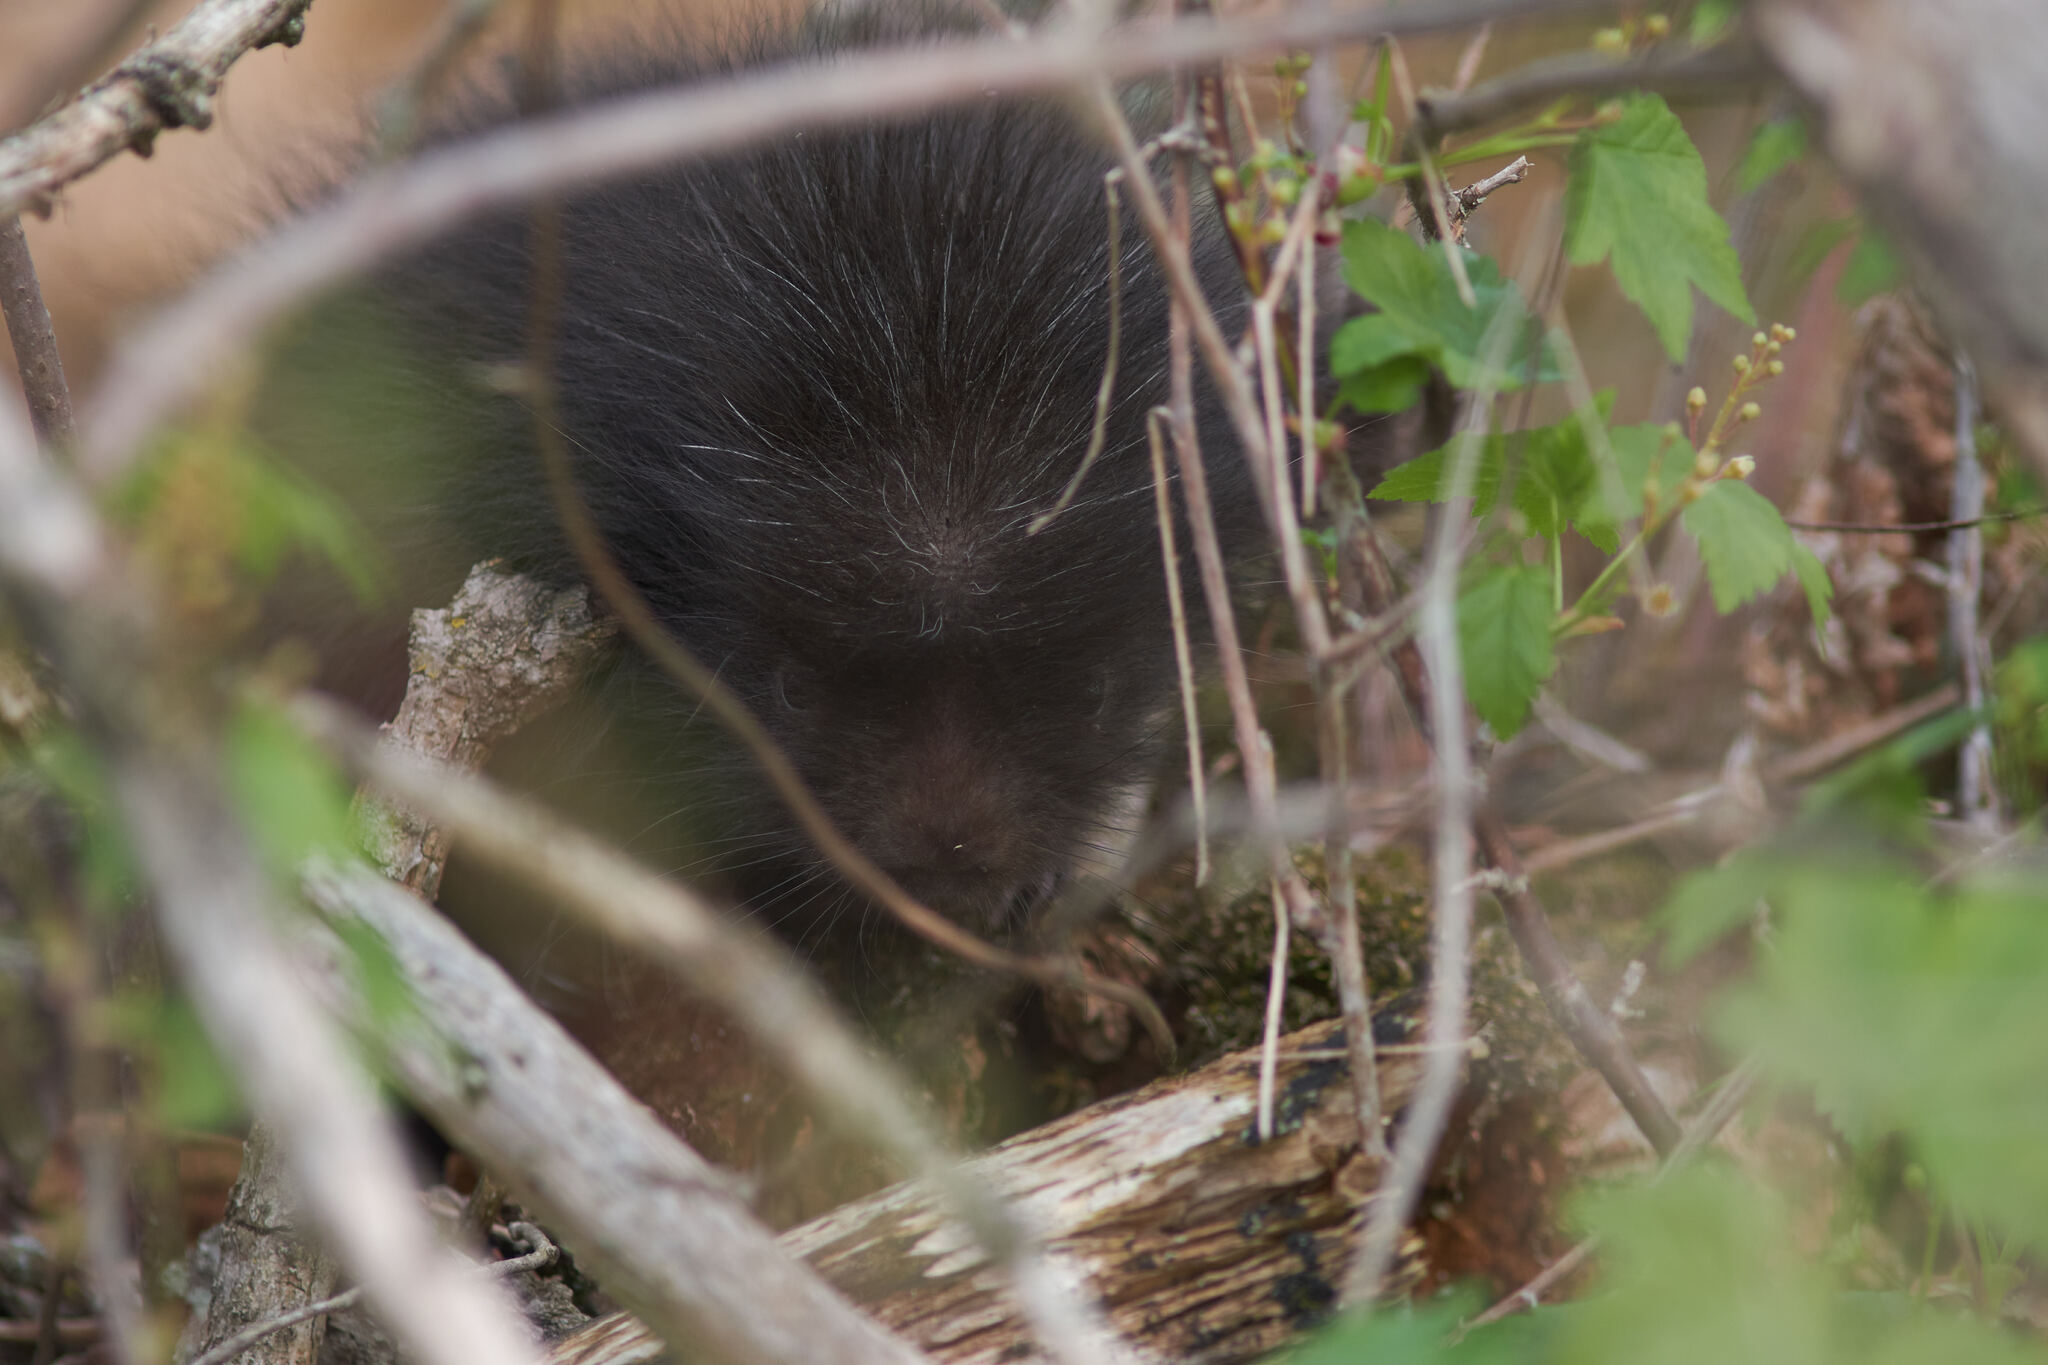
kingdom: Animalia
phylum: Chordata
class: Mammalia
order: Rodentia
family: Erethizontidae
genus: Erethizon
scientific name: Erethizon dorsatus
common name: North american porcupine
